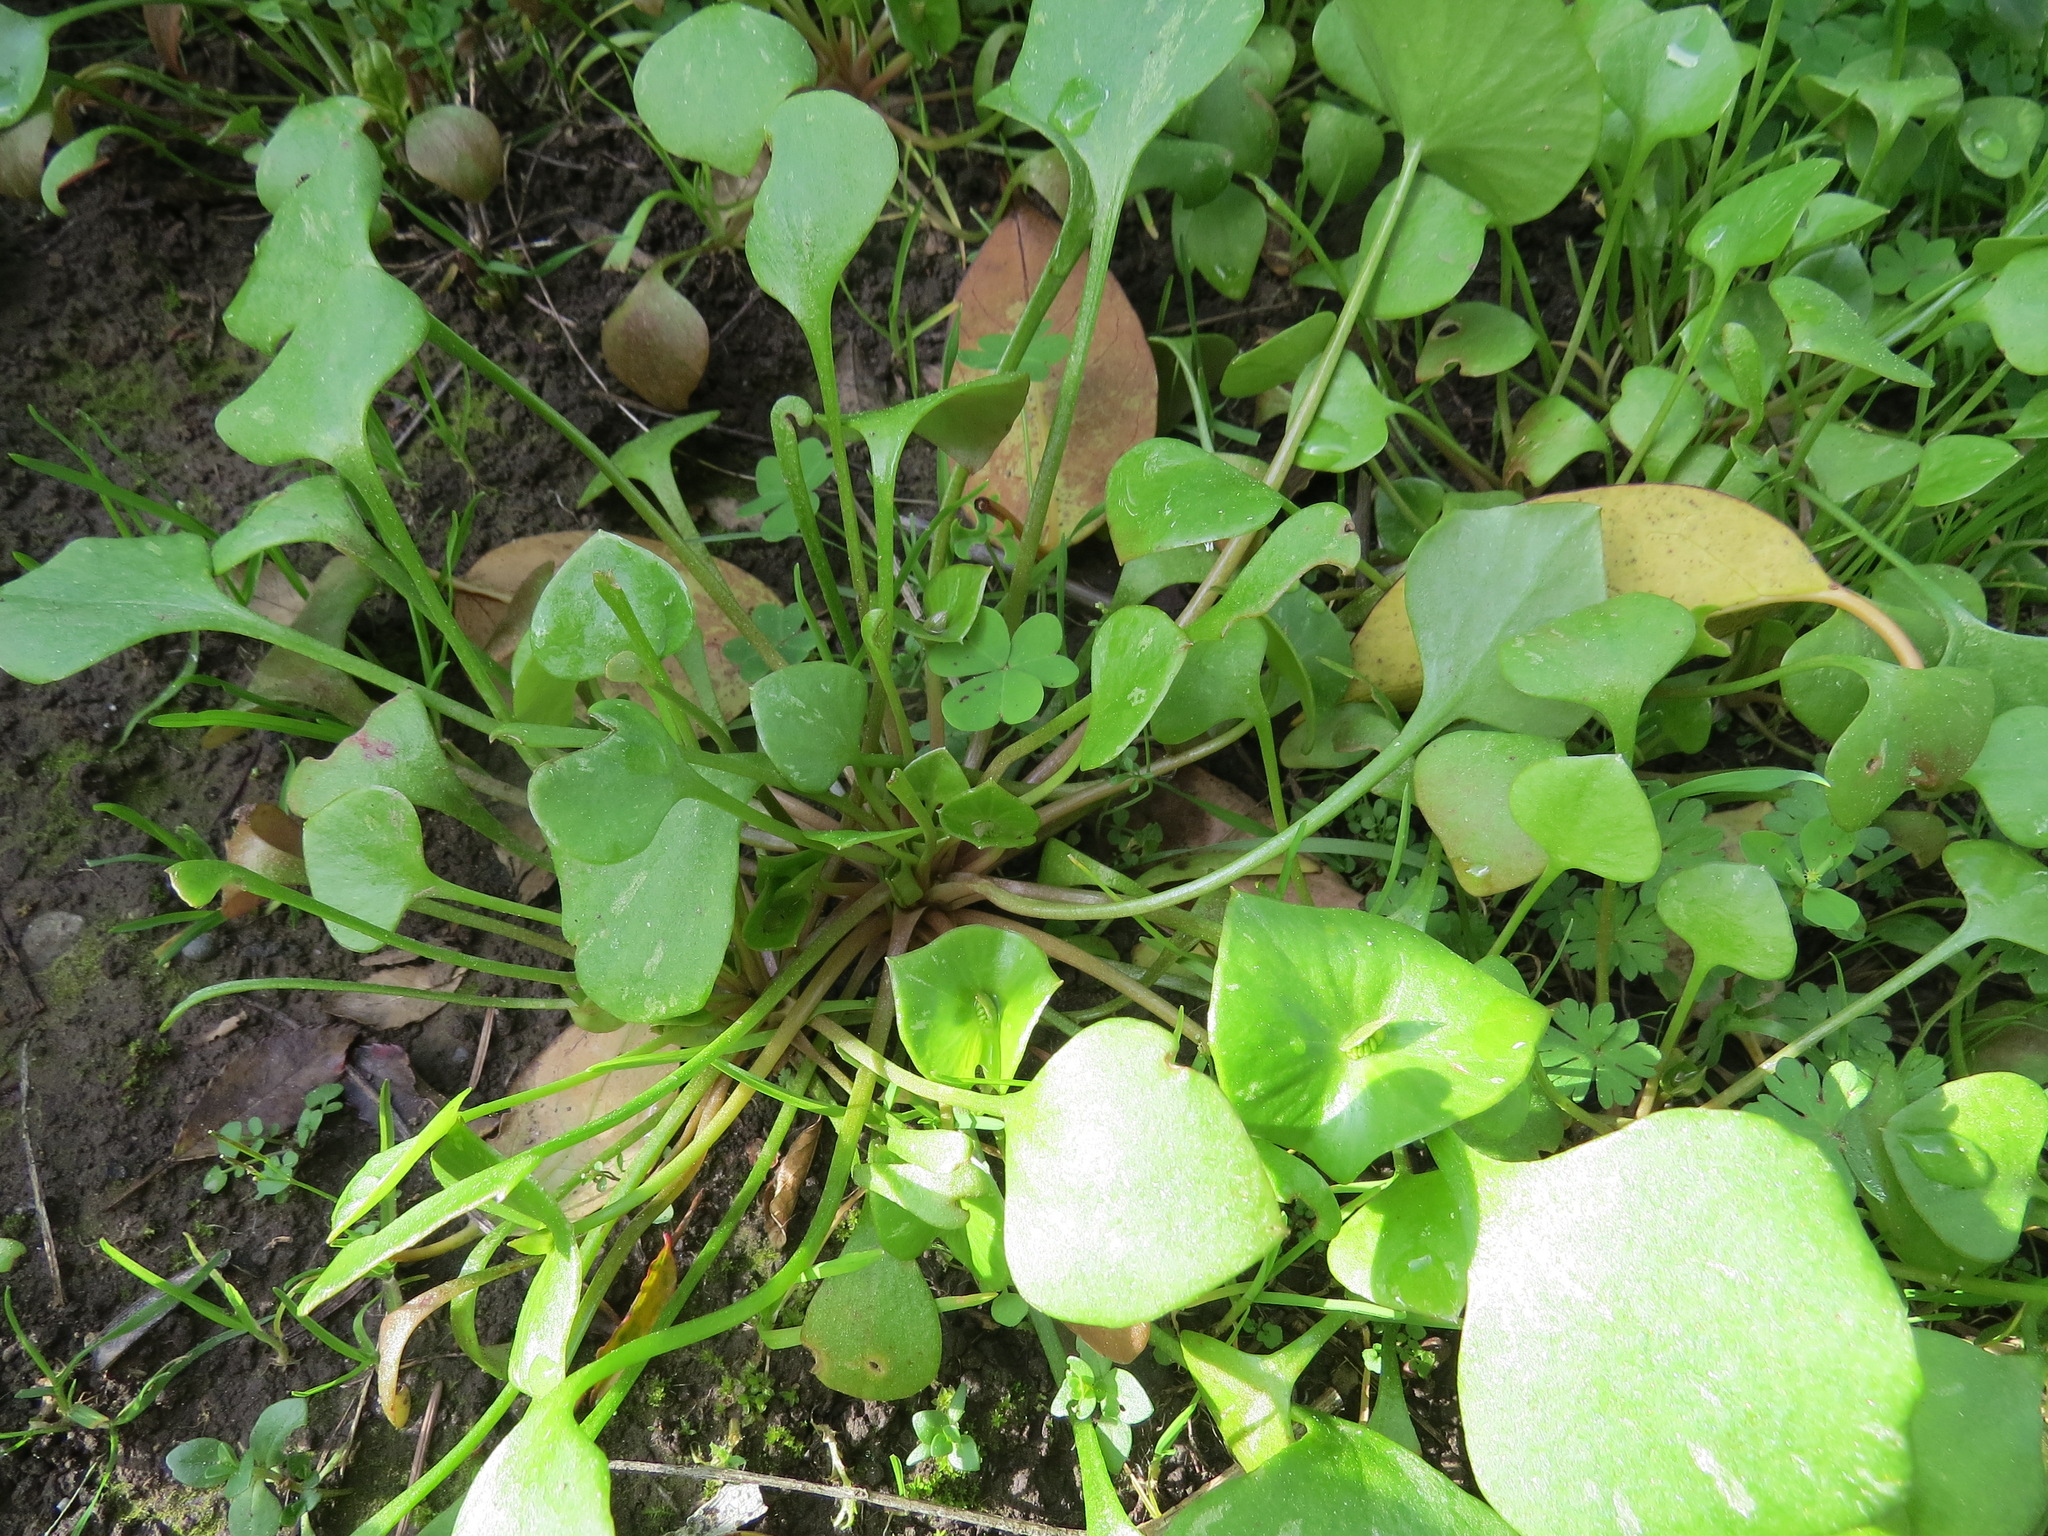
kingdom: Plantae
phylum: Tracheophyta
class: Magnoliopsida
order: Caryophyllales
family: Montiaceae
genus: Claytonia
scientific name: Claytonia perfoliata
